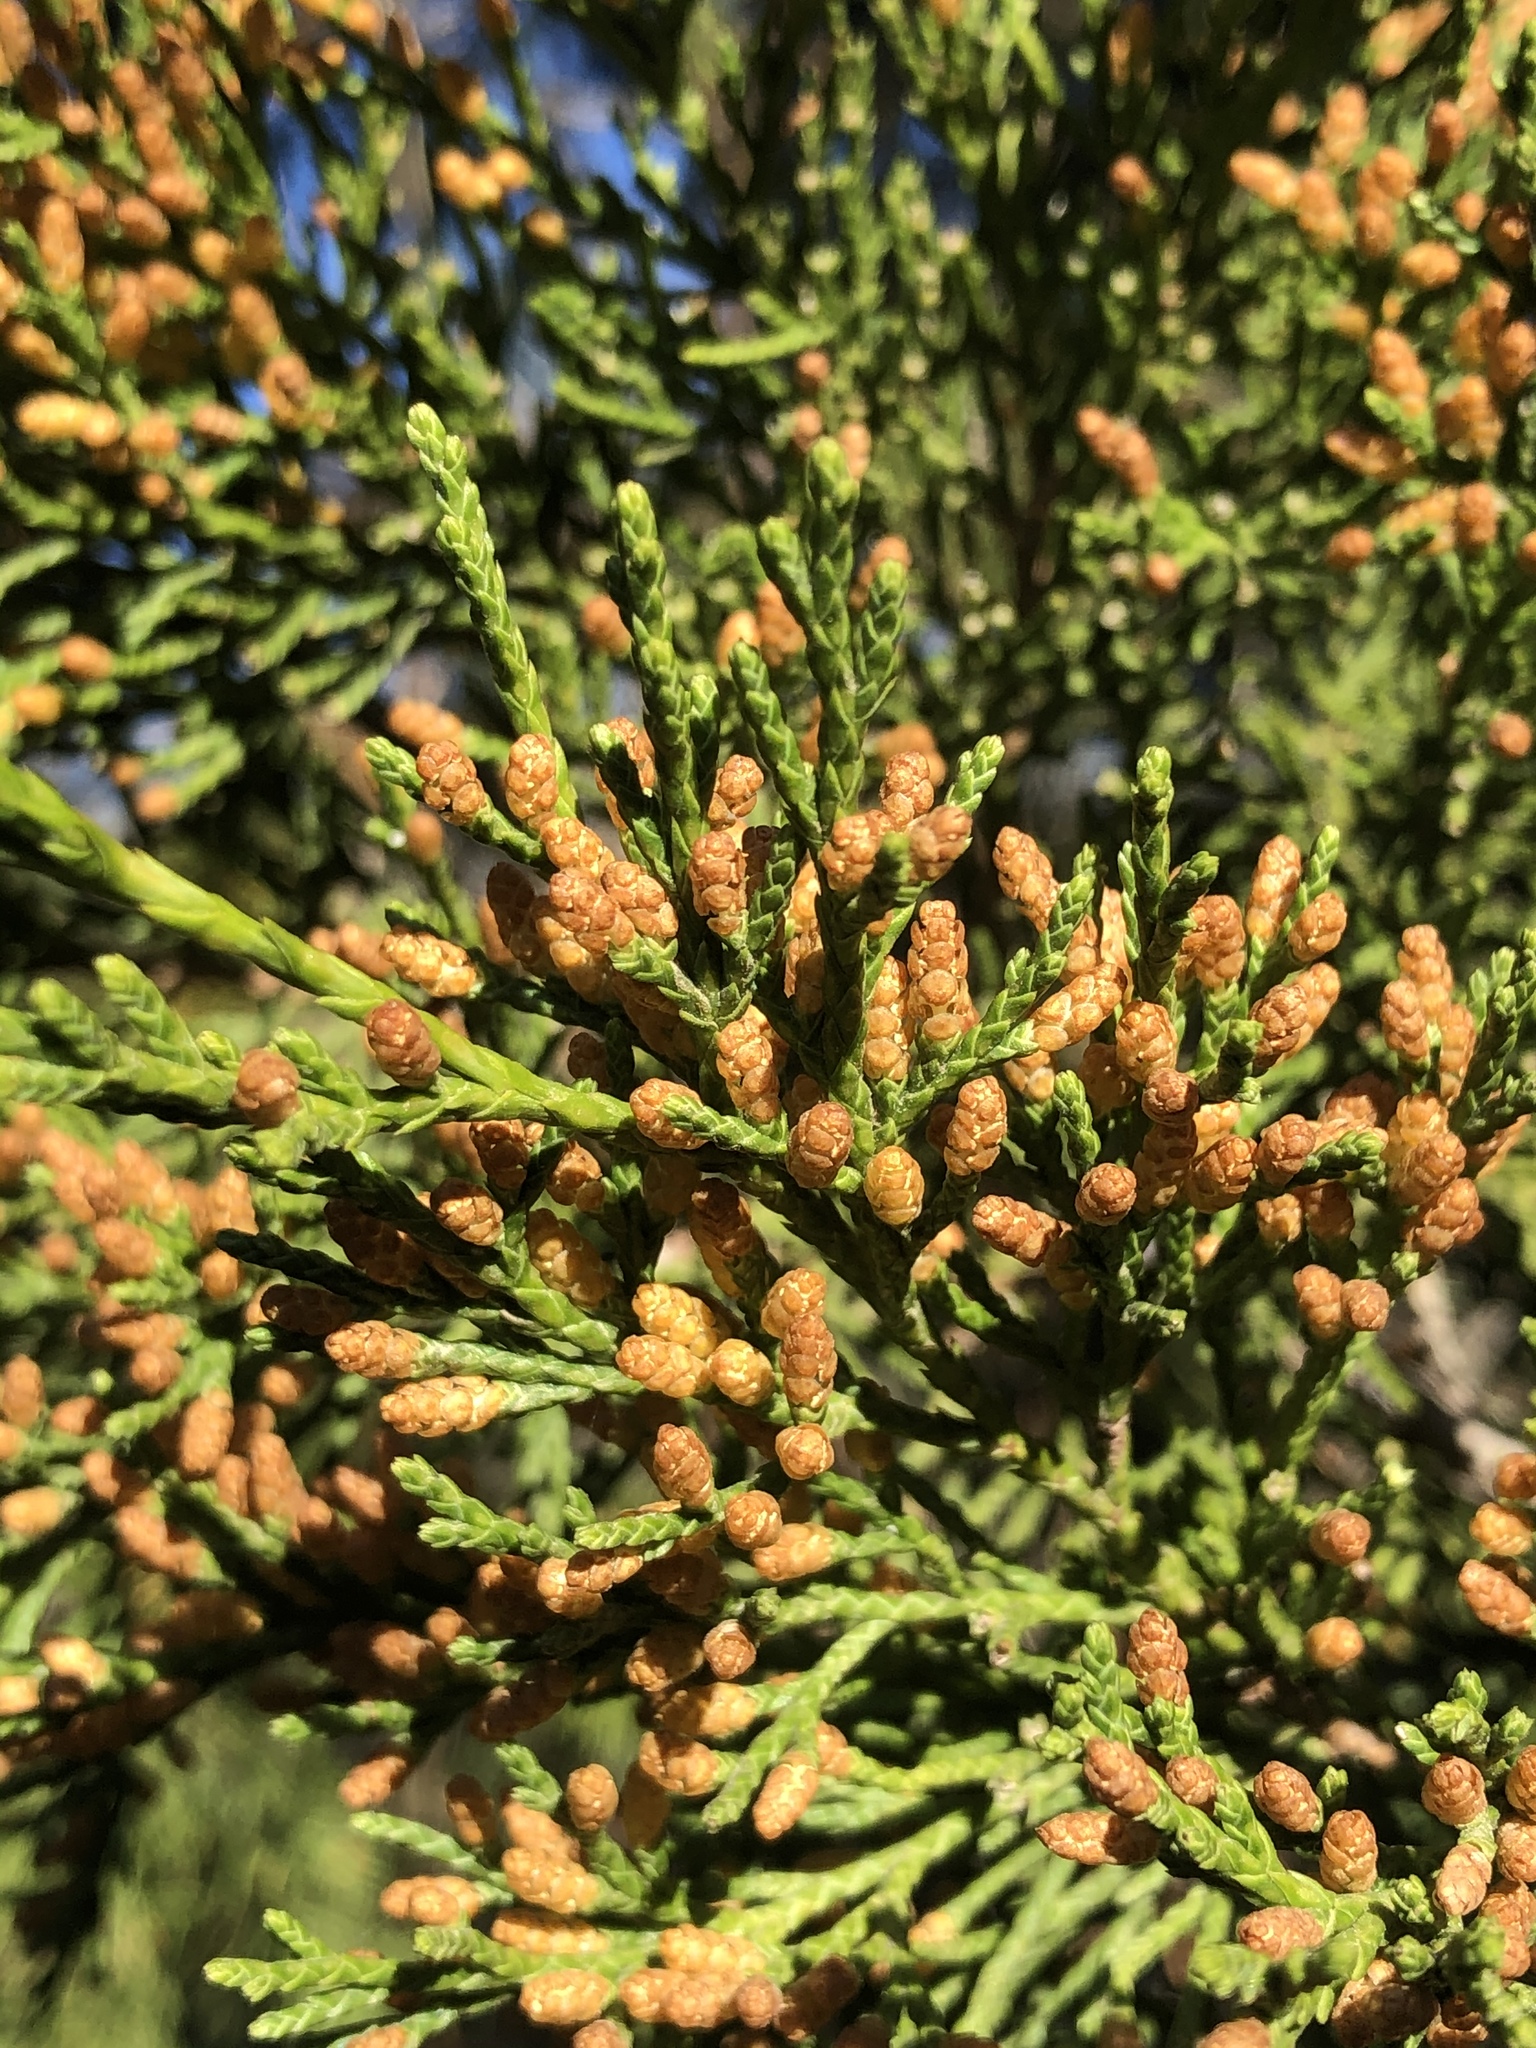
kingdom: Plantae
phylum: Tracheophyta
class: Pinopsida
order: Pinales
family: Cupressaceae
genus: Juniperus
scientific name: Juniperus ashei
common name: Mexican juniper
